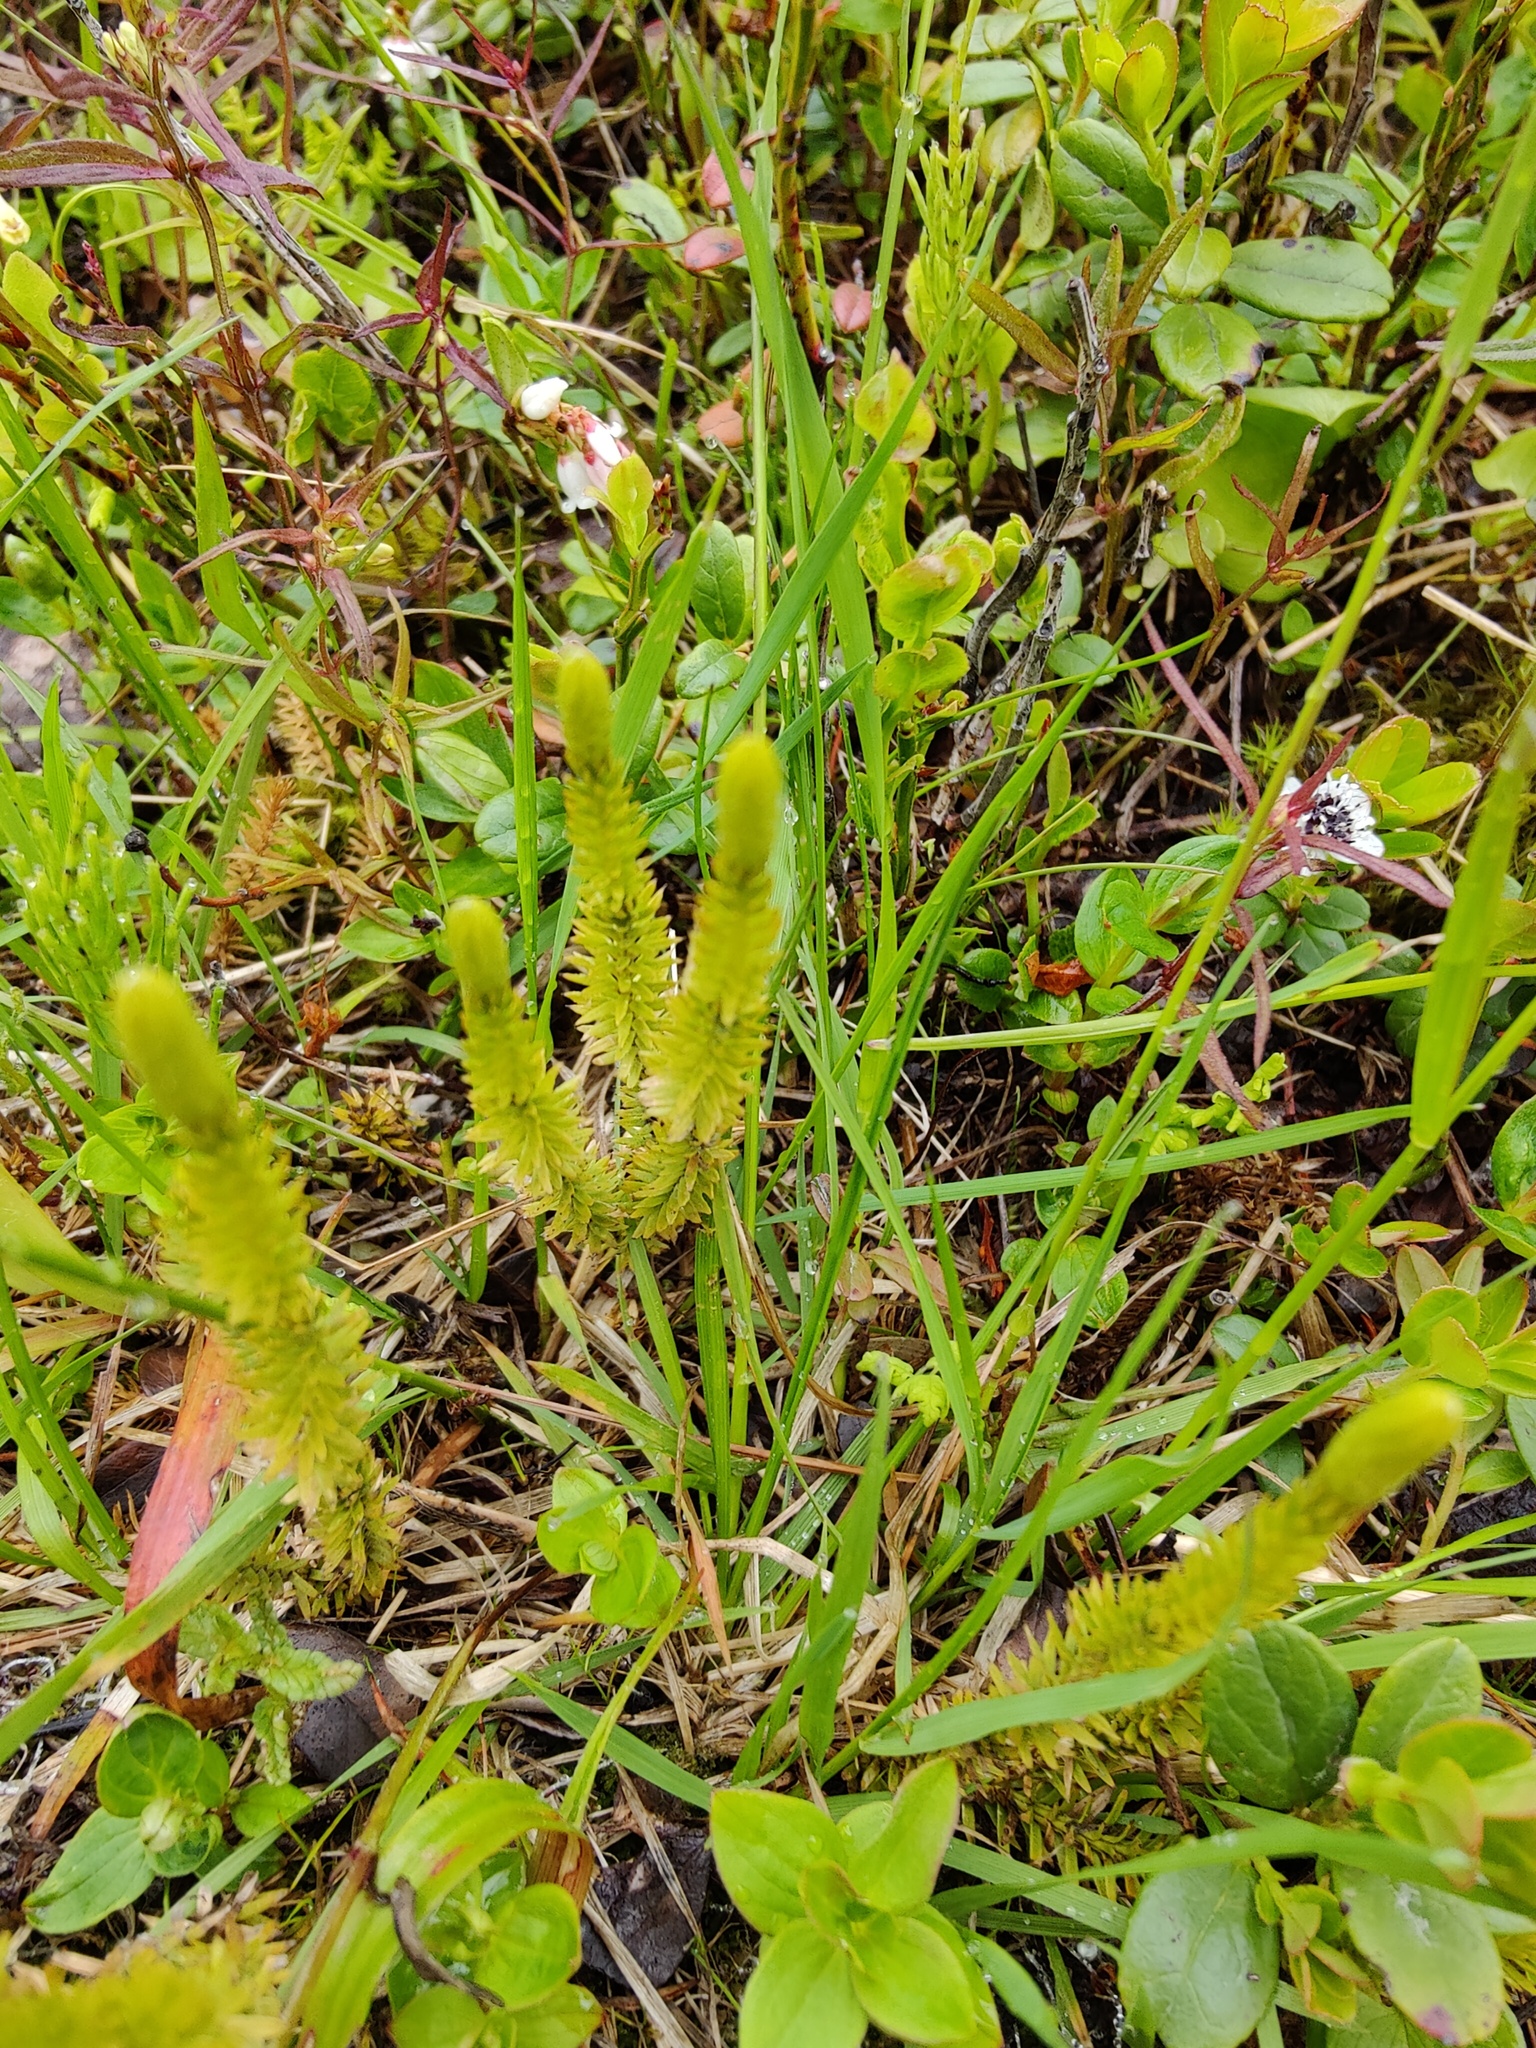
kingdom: Plantae
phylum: Tracheophyta
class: Lycopodiopsida
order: Lycopodiales
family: Lycopodiaceae
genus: Spinulum
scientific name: Spinulum annotinum
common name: Interrupted club-moss
